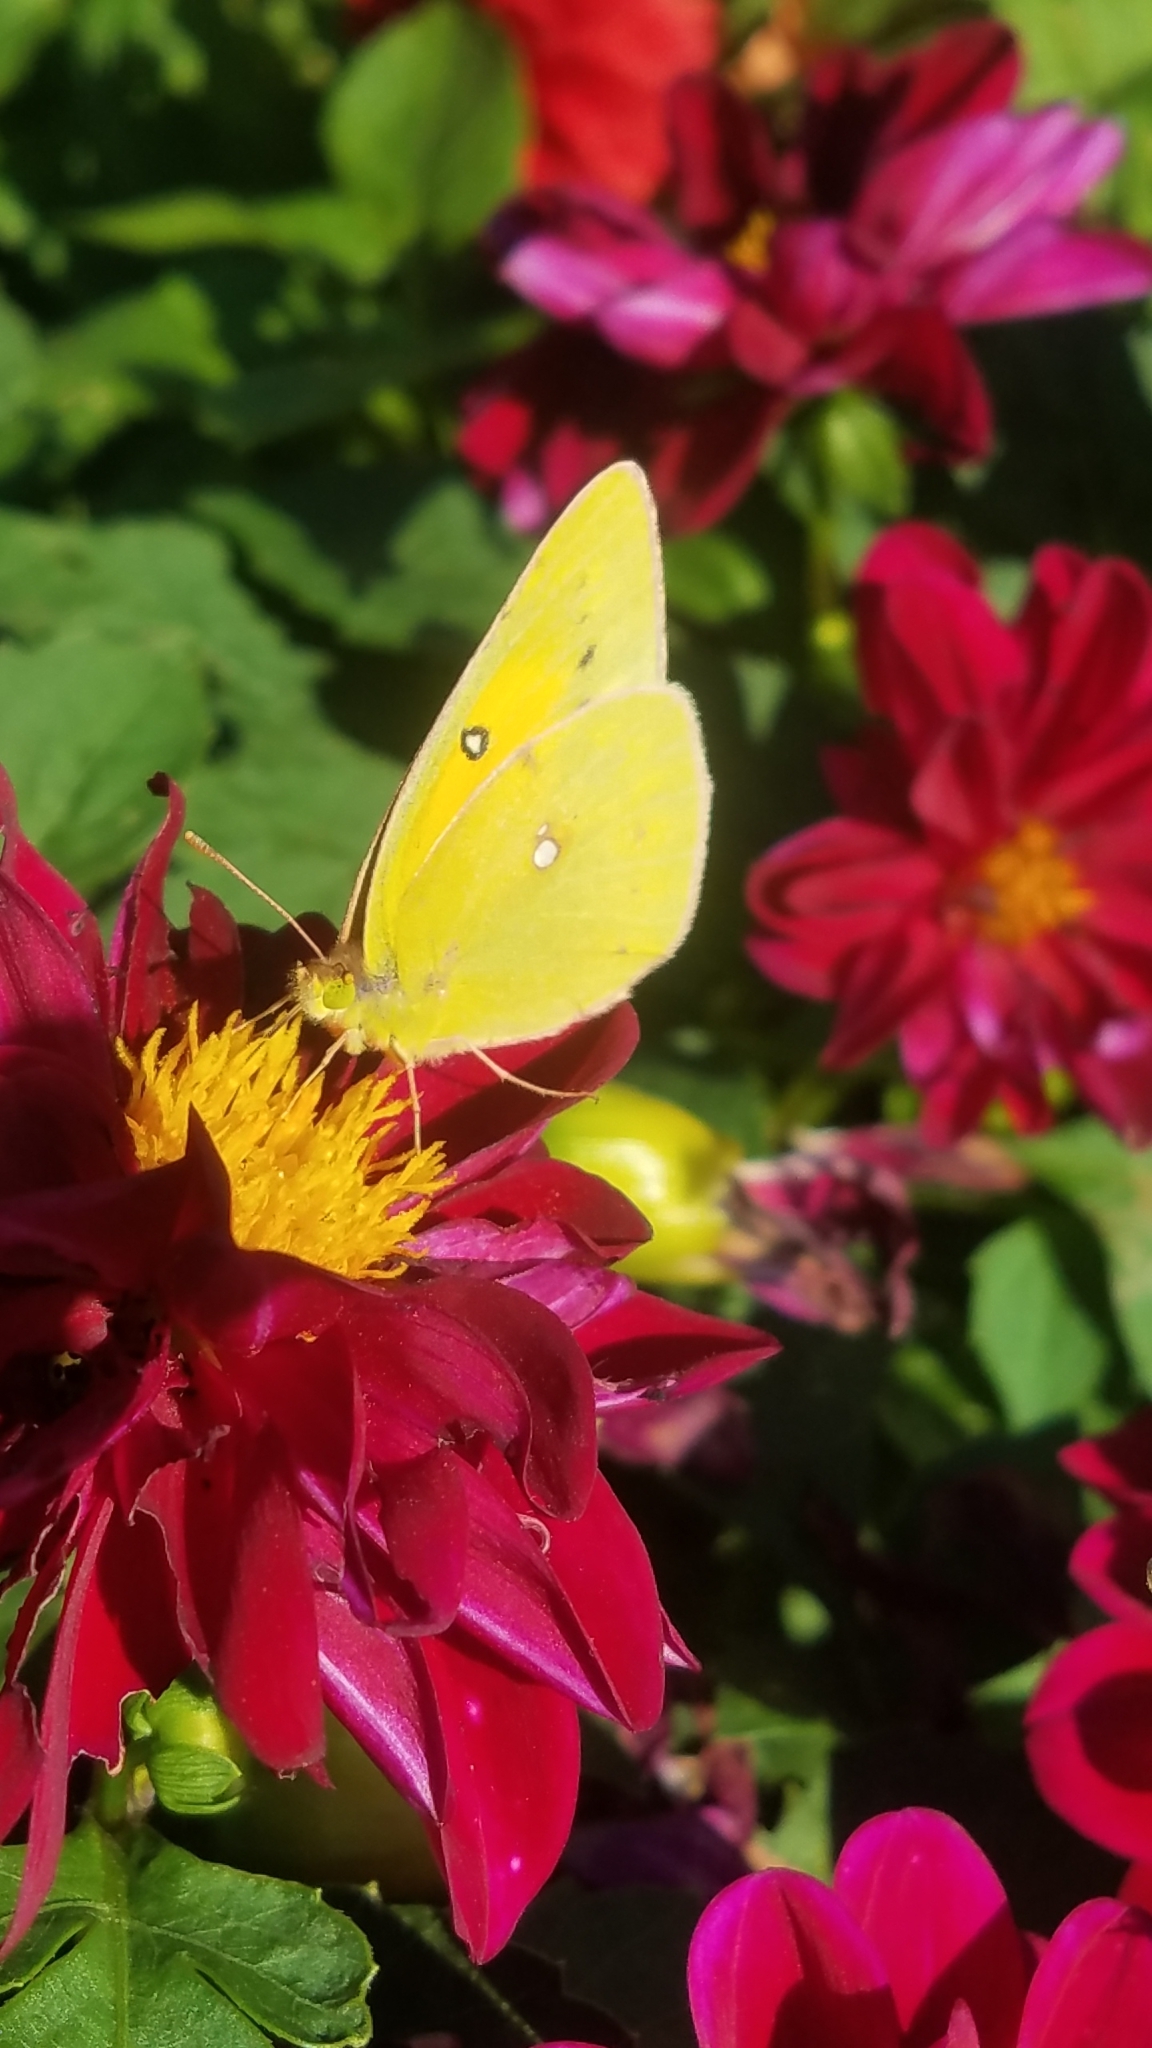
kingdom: Animalia
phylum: Arthropoda
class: Insecta
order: Lepidoptera
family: Pieridae
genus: Colias
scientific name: Colias eurytheme
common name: Alfalfa butterfly
